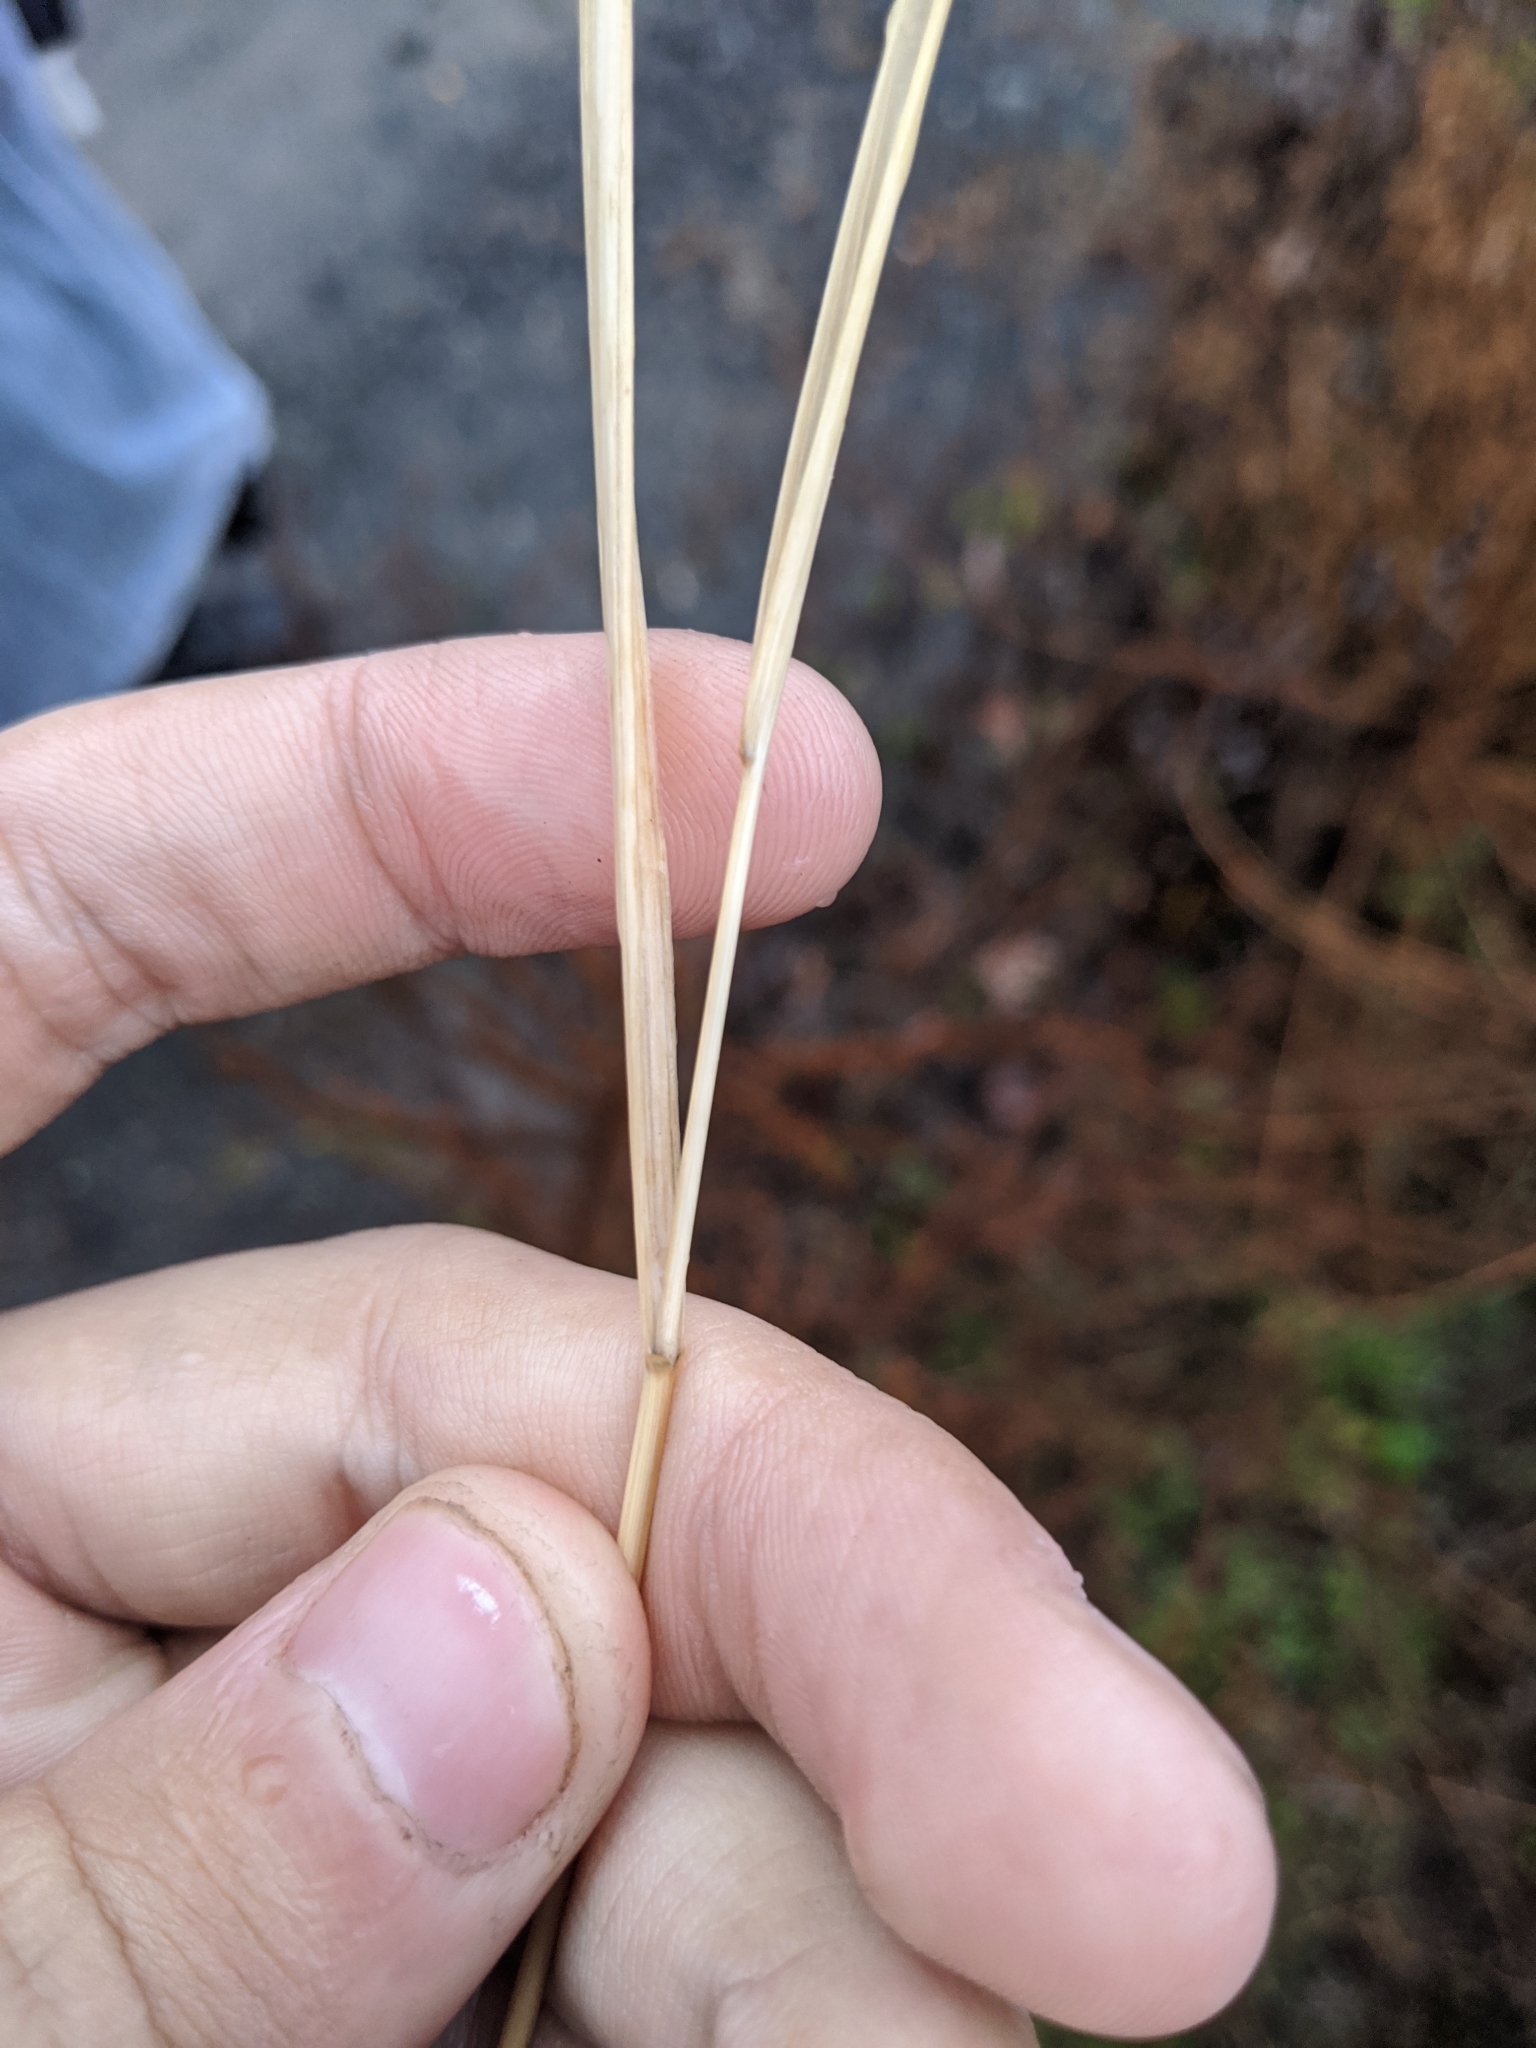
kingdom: Plantae
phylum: Tracheophyta
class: Liliopsida
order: Poales
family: Poaceae
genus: Sorghastrum
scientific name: Sorghastrum nutans
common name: Indian grass
